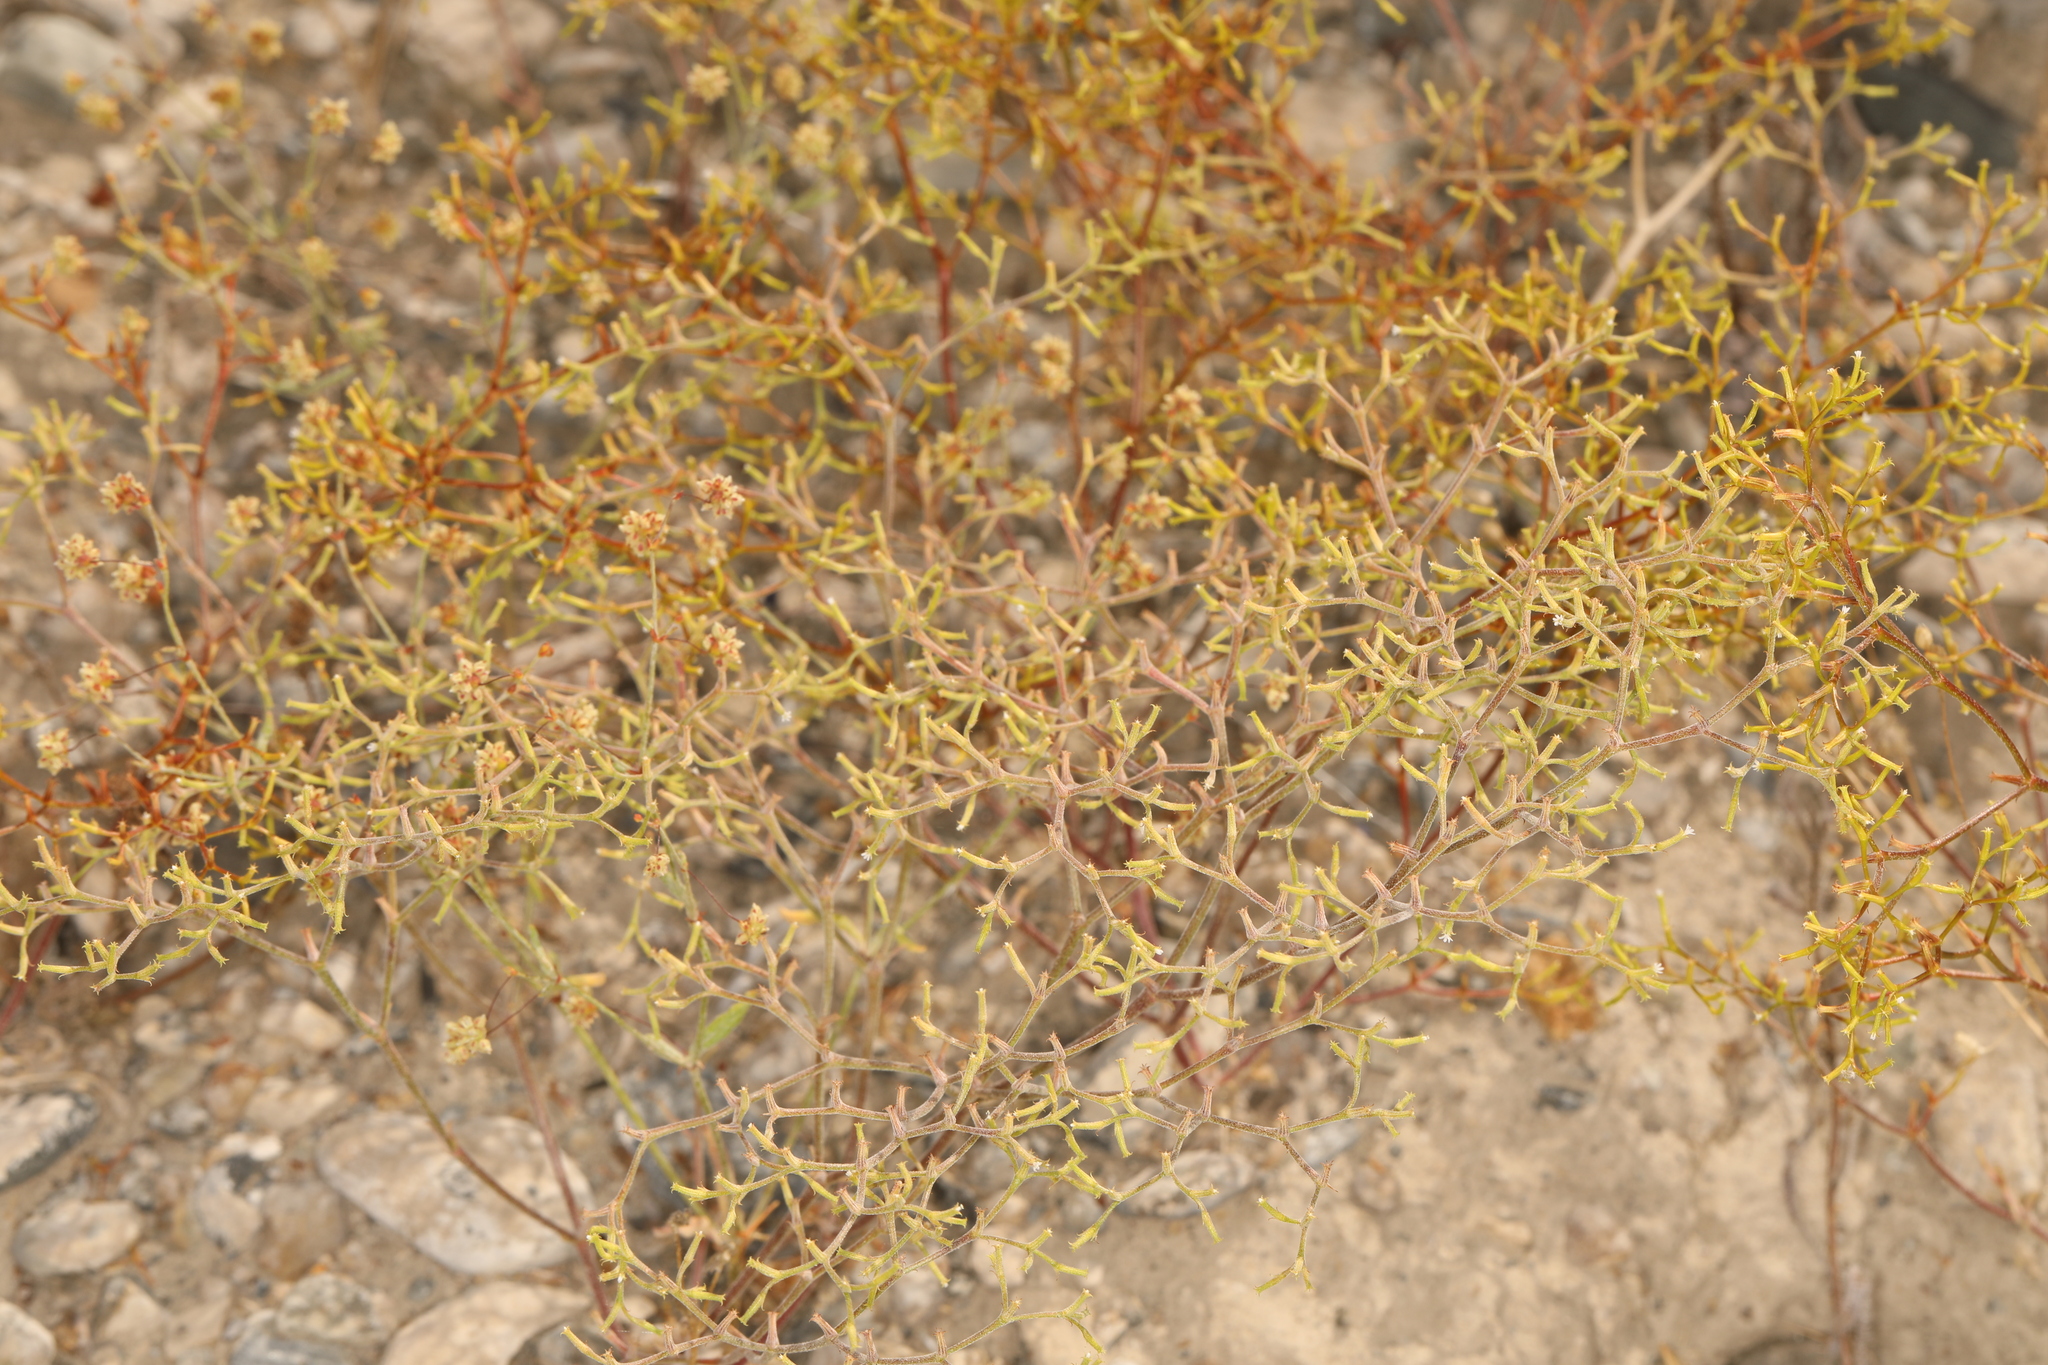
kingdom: Plantae
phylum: Tracheophyta
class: Magnoliopsida
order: Caryophyllales
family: Polygonaceae
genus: Chorizanthe
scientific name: Chorizanthe brevicornu
